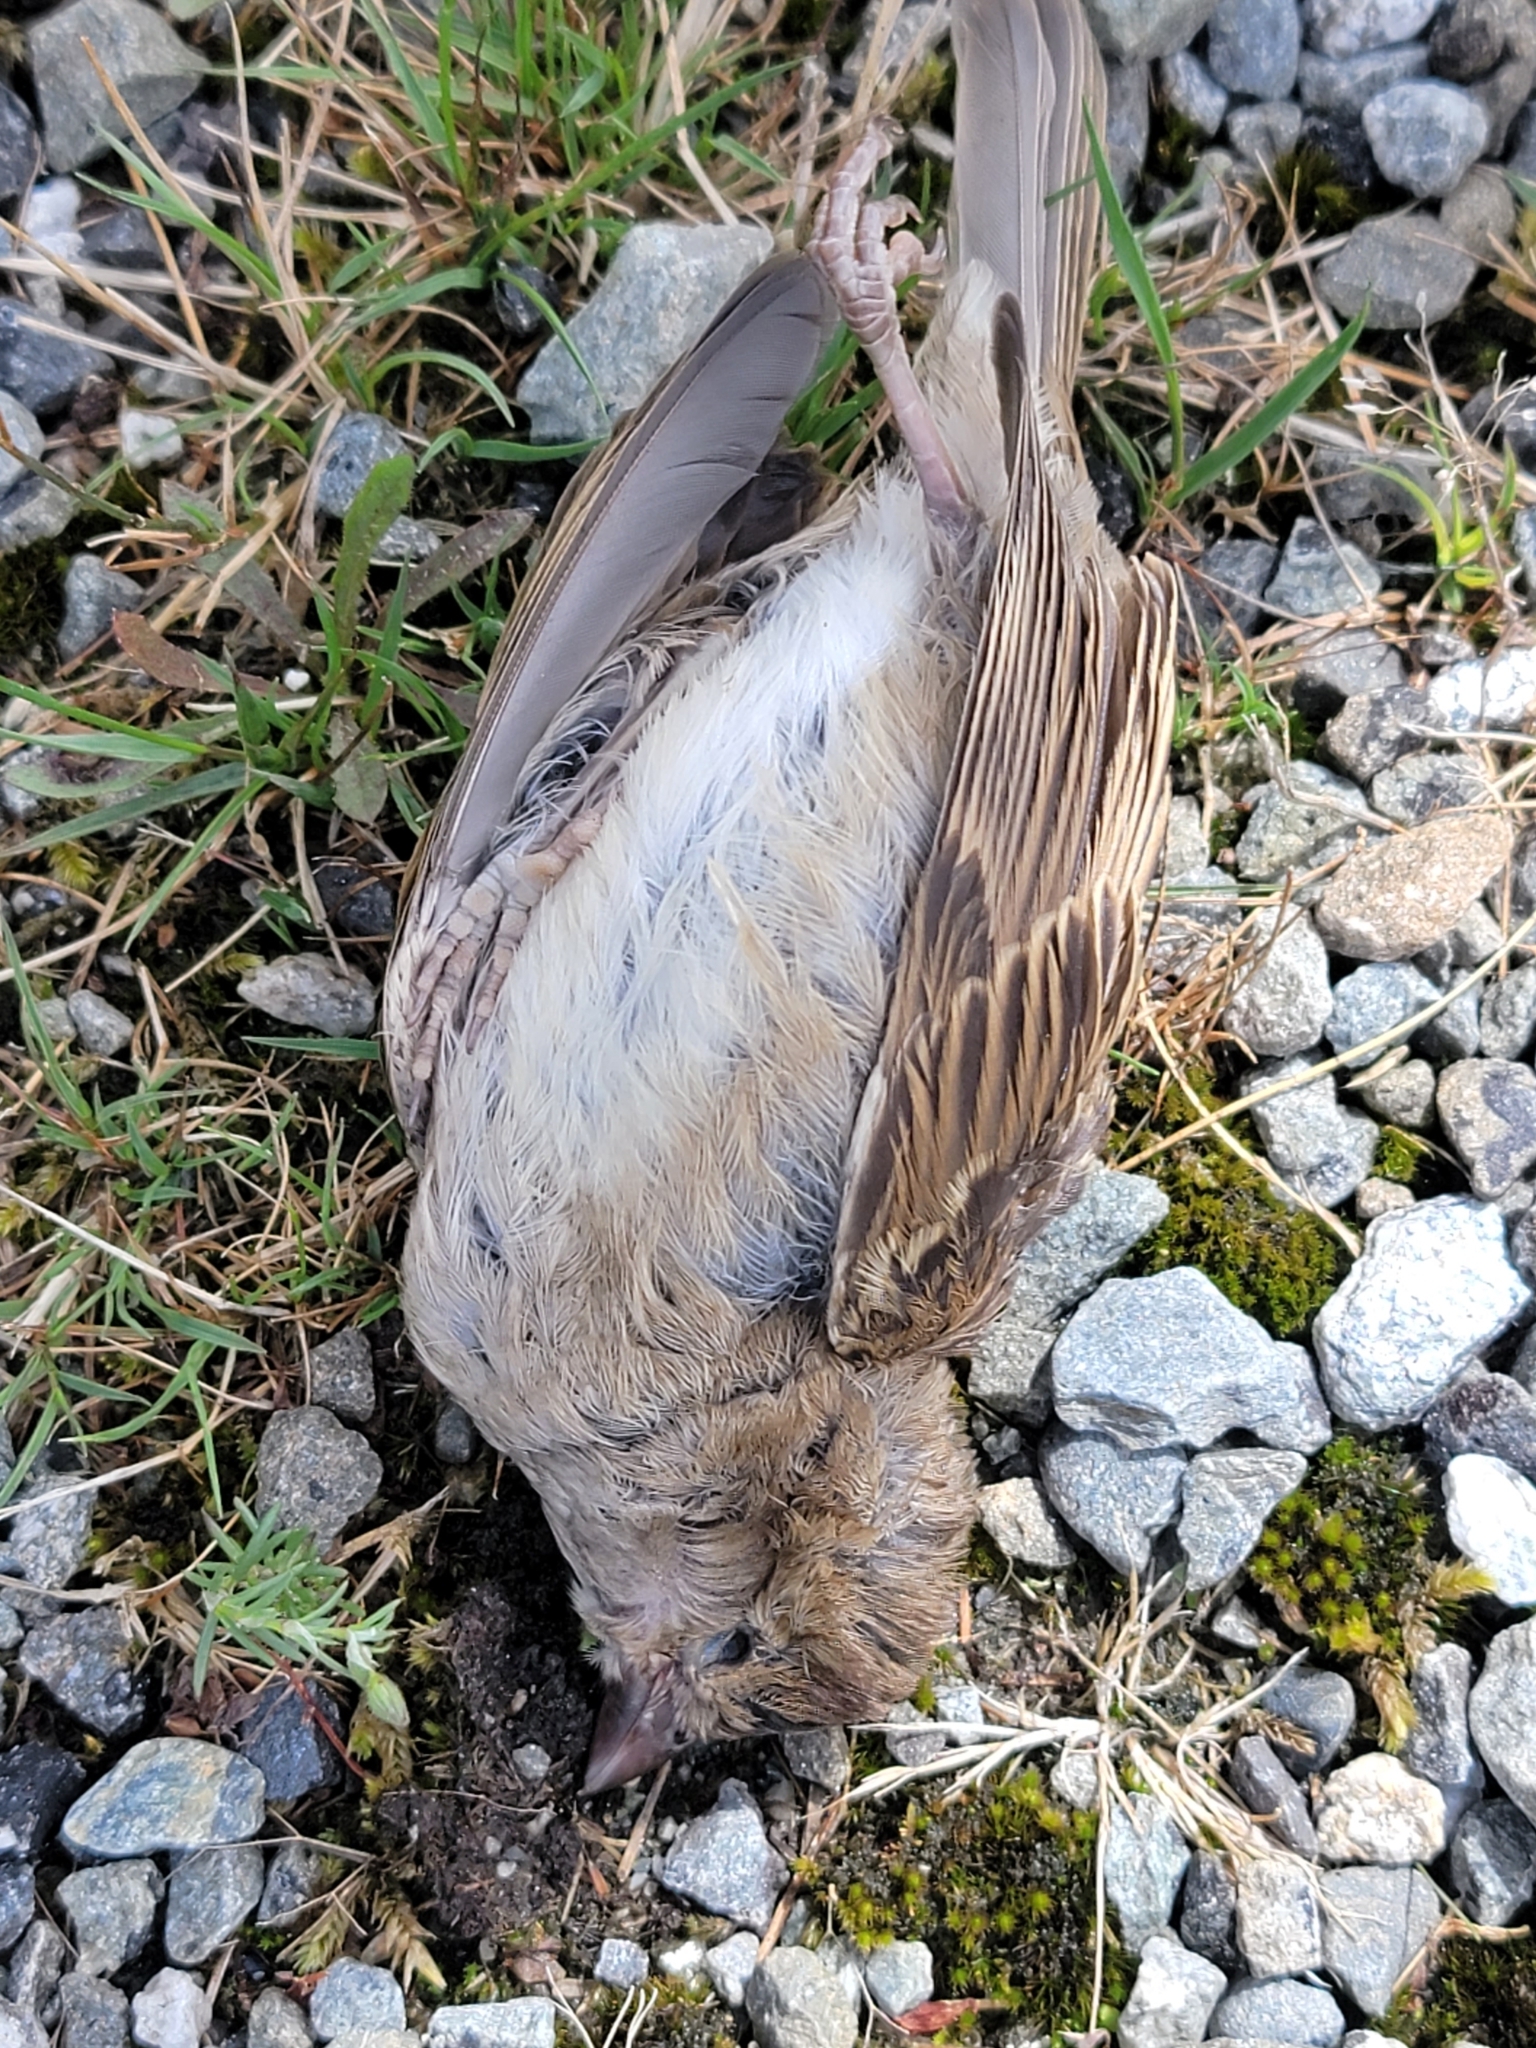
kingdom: Animalia
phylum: Chordata
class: Aves
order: Passeriformes
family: Passeridae
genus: Passer
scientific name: Passer domesticus
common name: House sparrow
